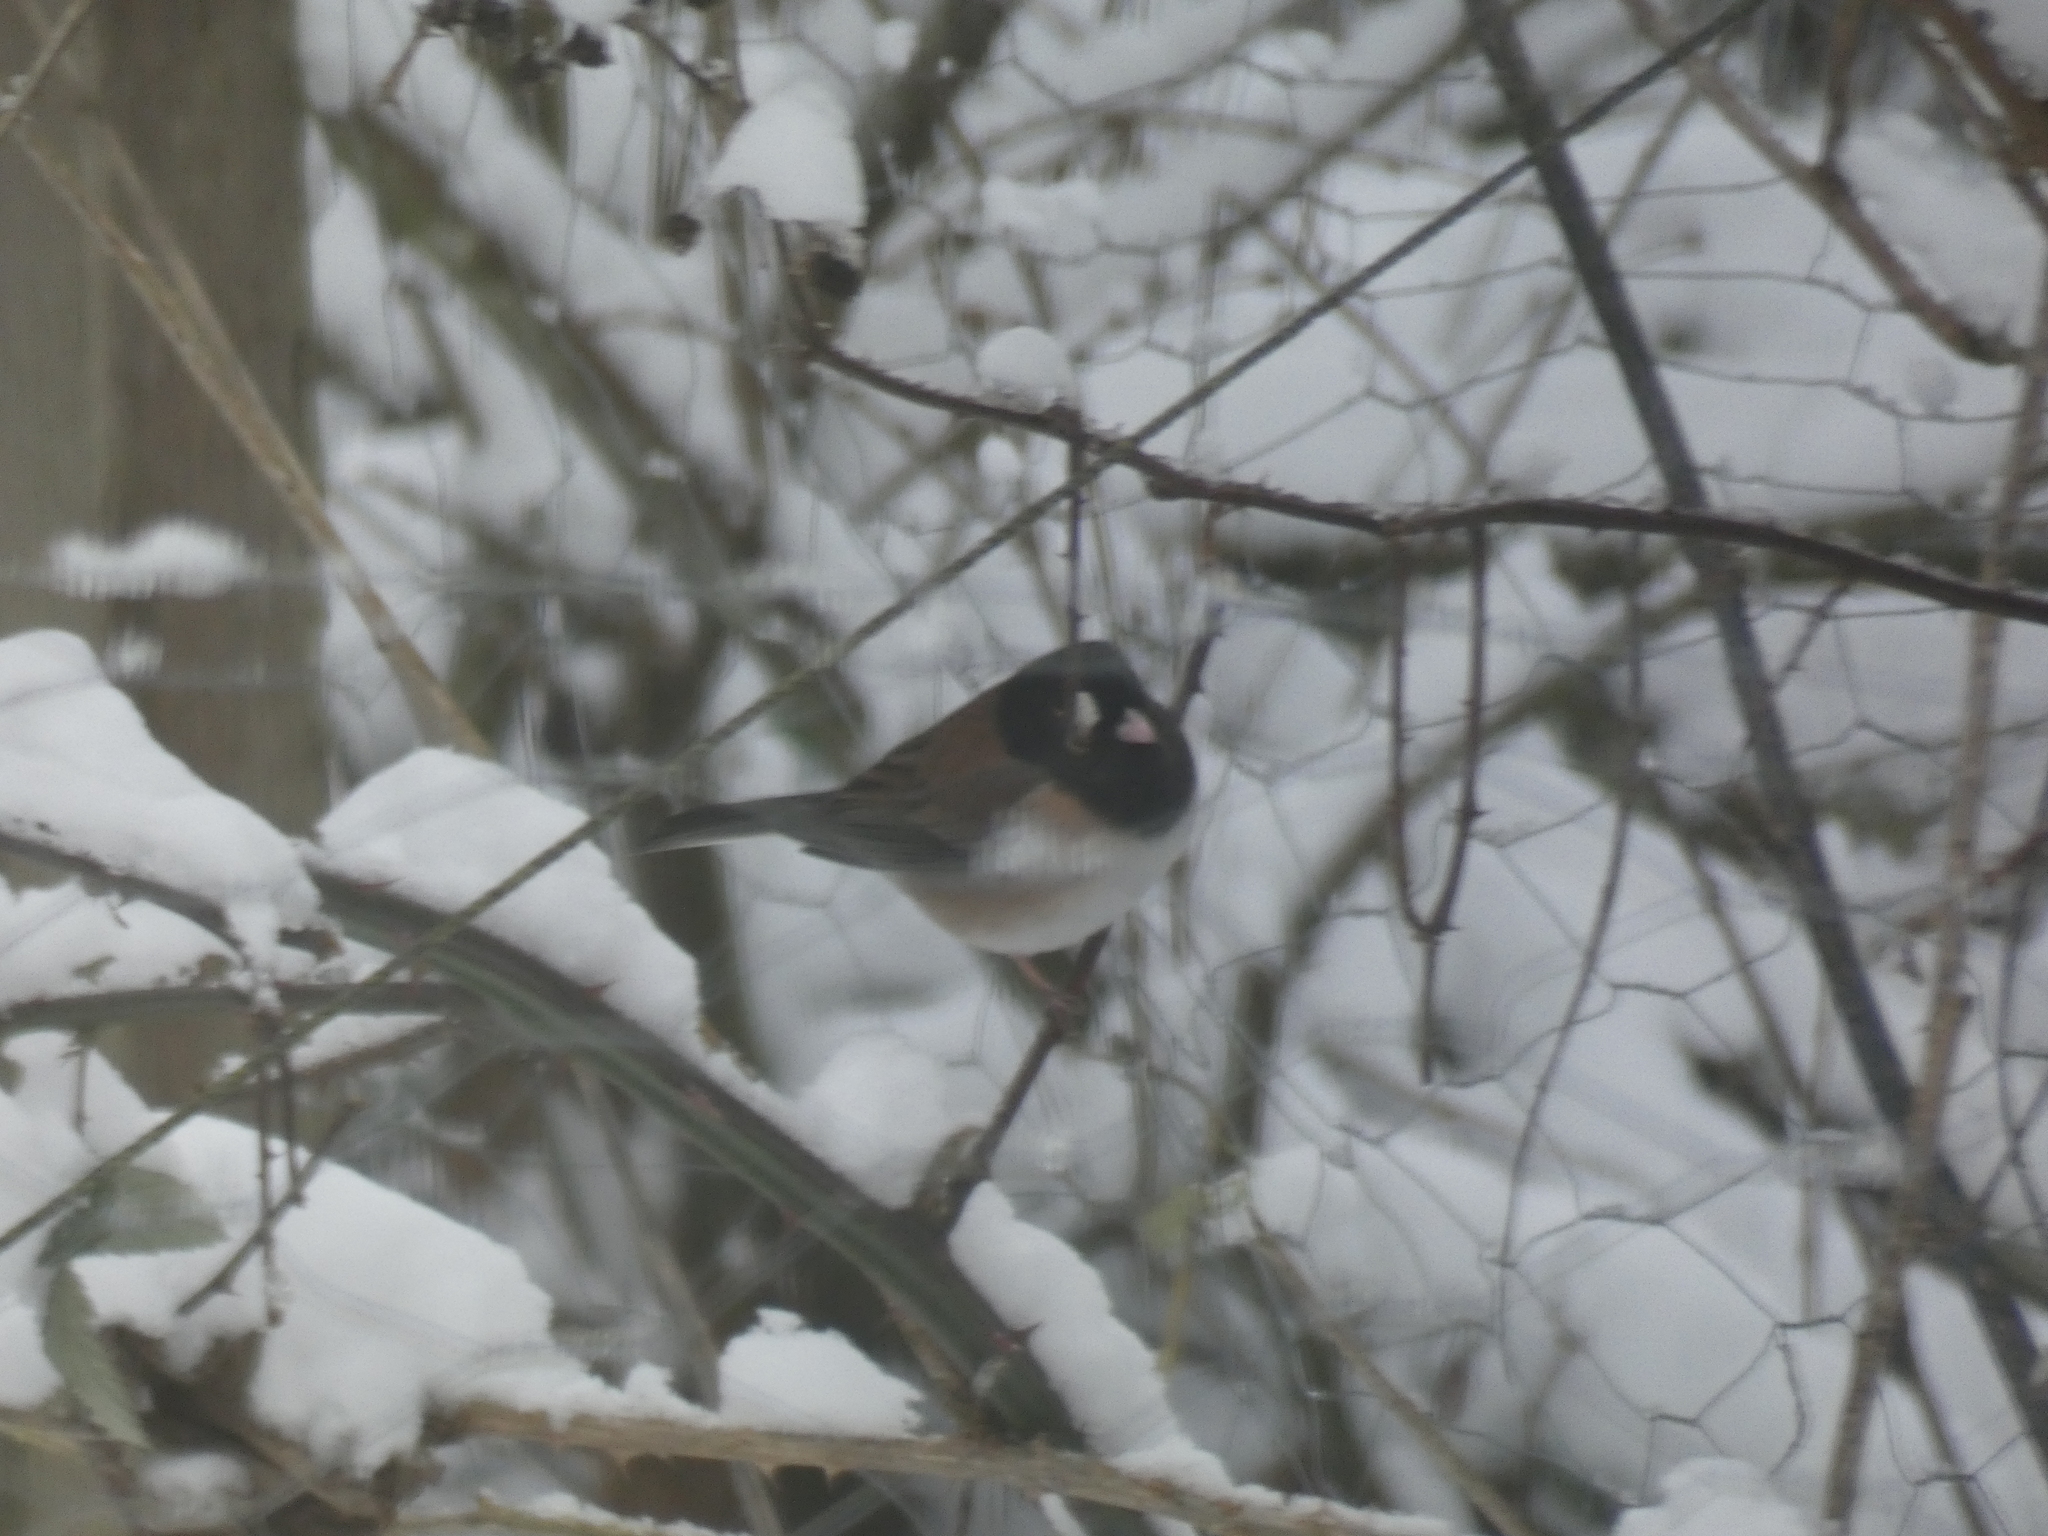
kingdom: Animalia
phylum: Chordata
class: Aves
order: Passeriformes
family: Passerellidae
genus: Junco
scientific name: Junco hyemalis
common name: Dark-eyed junco
